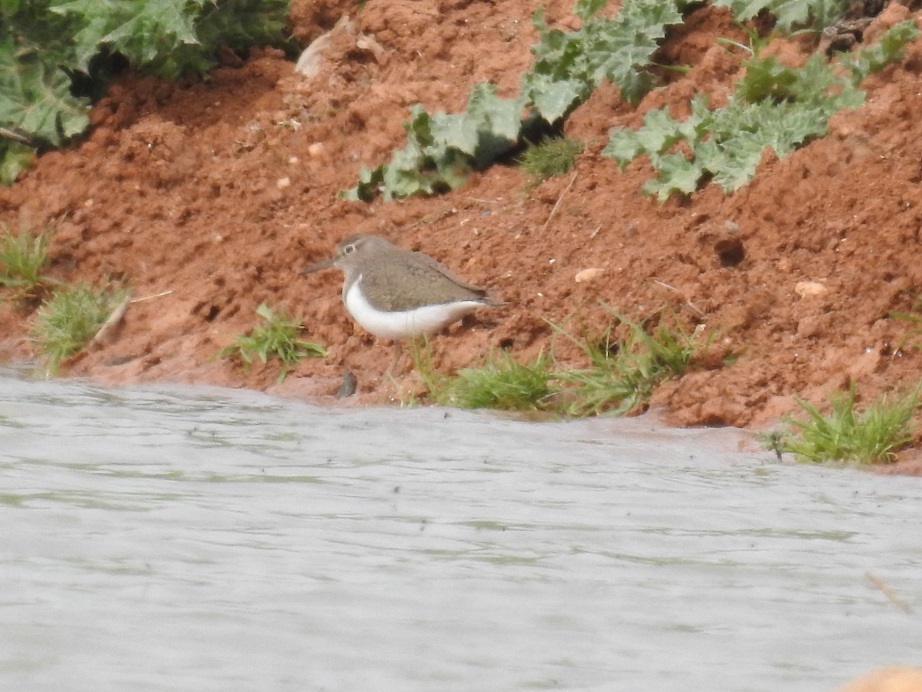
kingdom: Animalia
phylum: Chordata
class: Aves
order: Charadriiformes
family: Scolopacidae
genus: Actitis
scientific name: Actitis hypoleucos
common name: Common sandpiper
